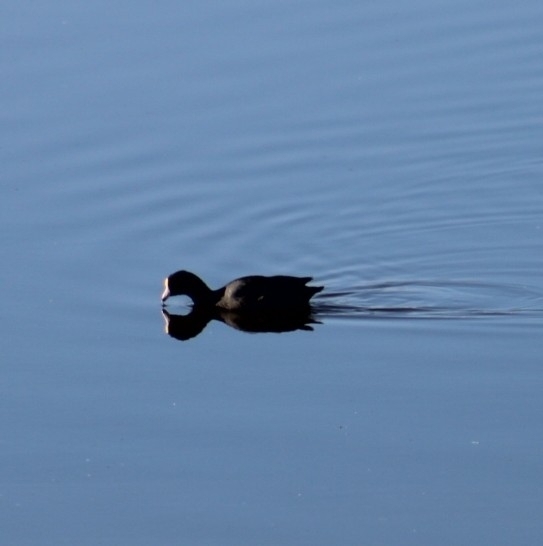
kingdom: Animalia
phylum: Chordata
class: Aves
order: Gruiformes
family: Rallidae
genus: Fulica
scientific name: Fulica americana
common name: American coot
